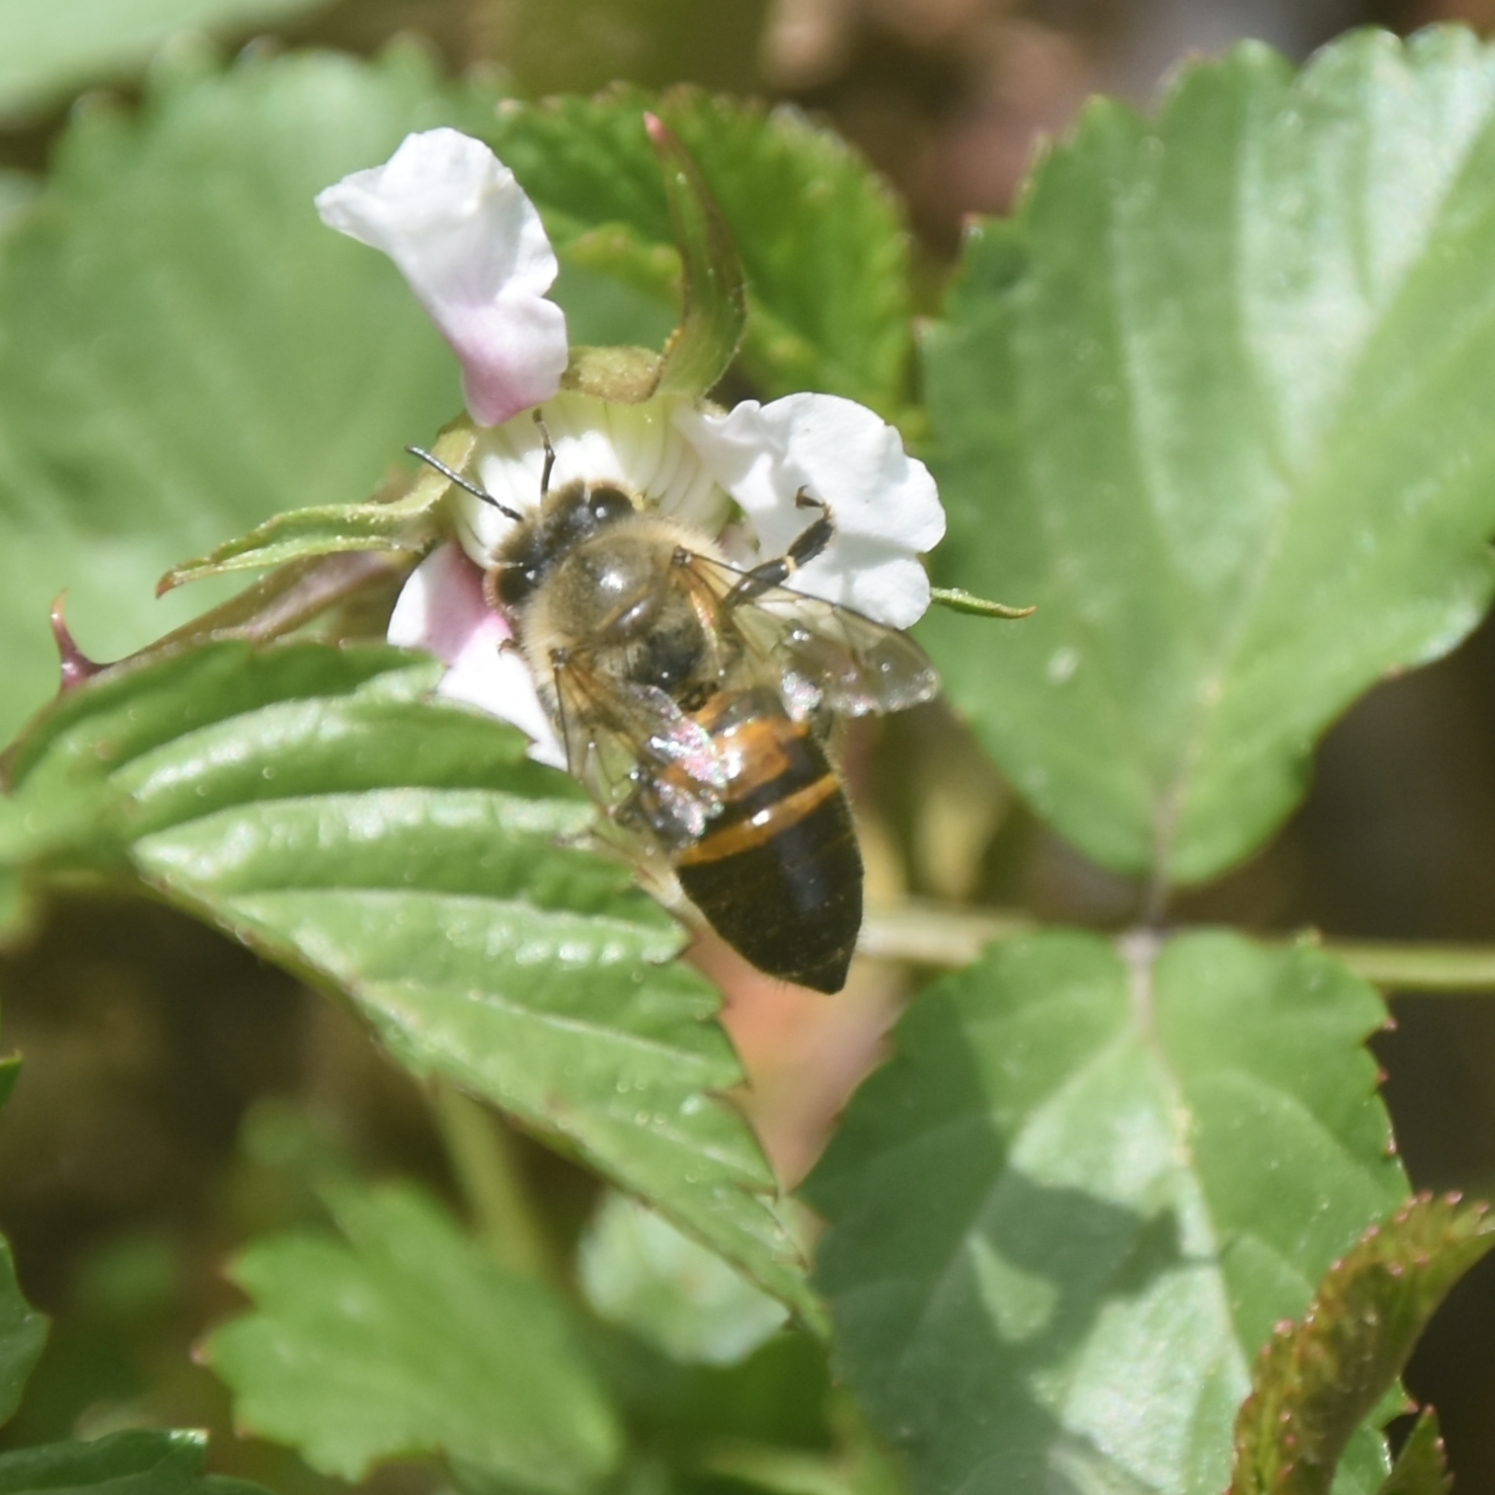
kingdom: Animalia
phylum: Arthropoda
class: Insecta
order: Hymenoptera
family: Apidae
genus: Apis
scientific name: Apis cerana
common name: Honey bee
